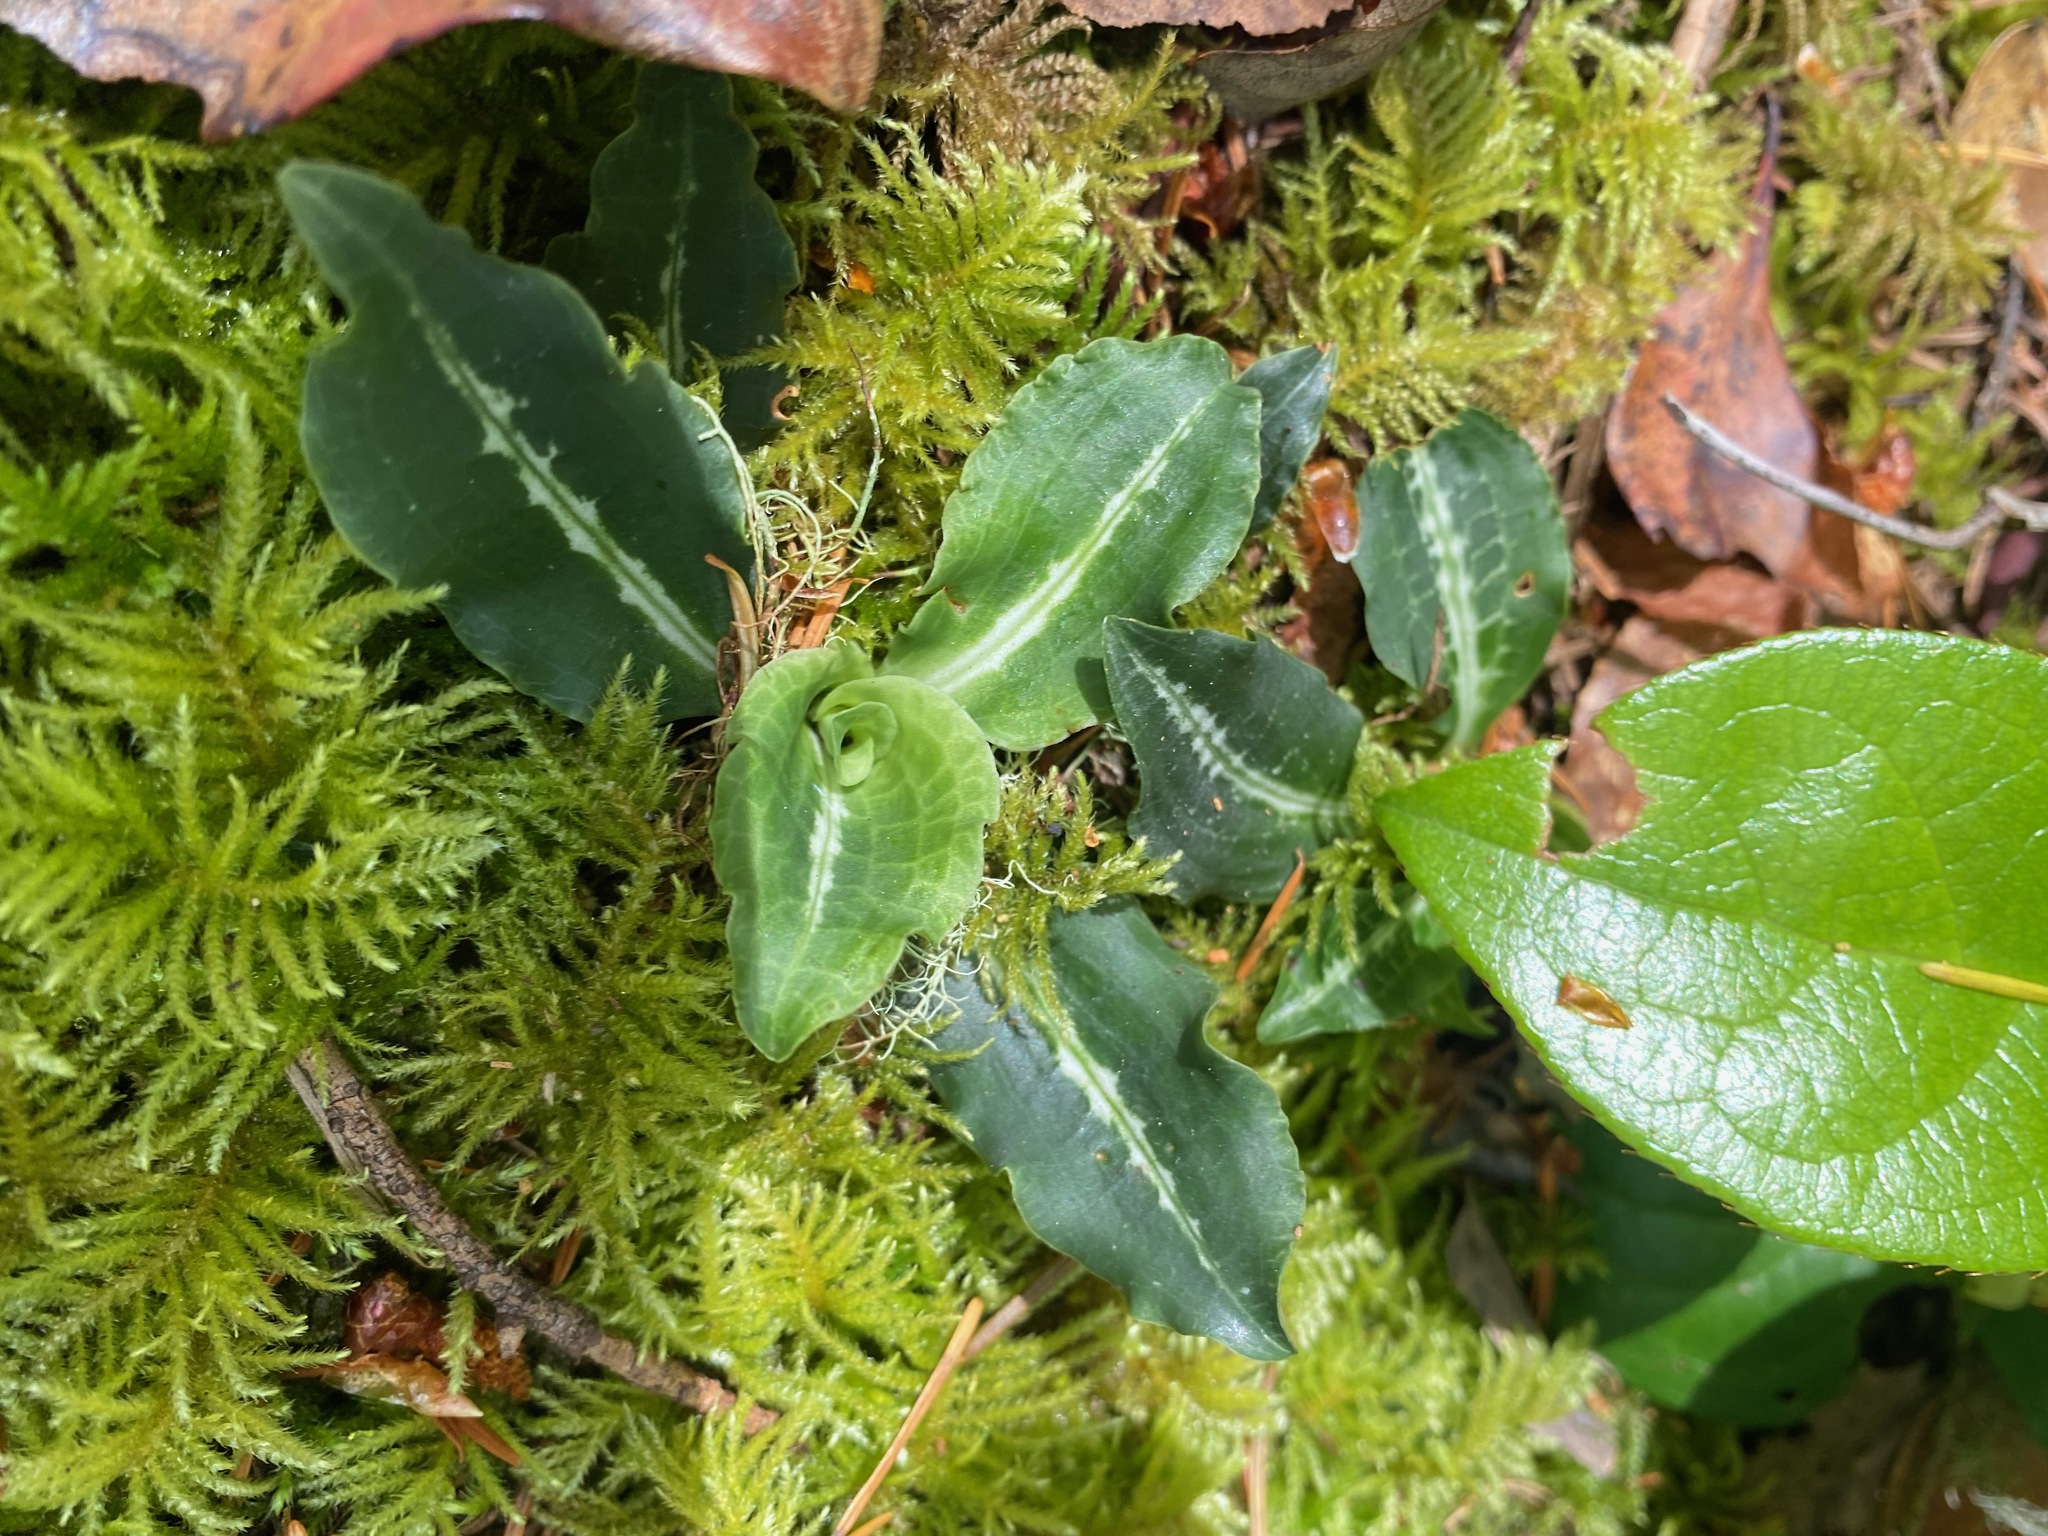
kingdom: Plantae
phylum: Tracheophyta
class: Liliopsida
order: Asparagales
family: Orchidaceae
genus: Goodyera
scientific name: Goodyera oblongifolia
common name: Giant rattlesnake-plantain
